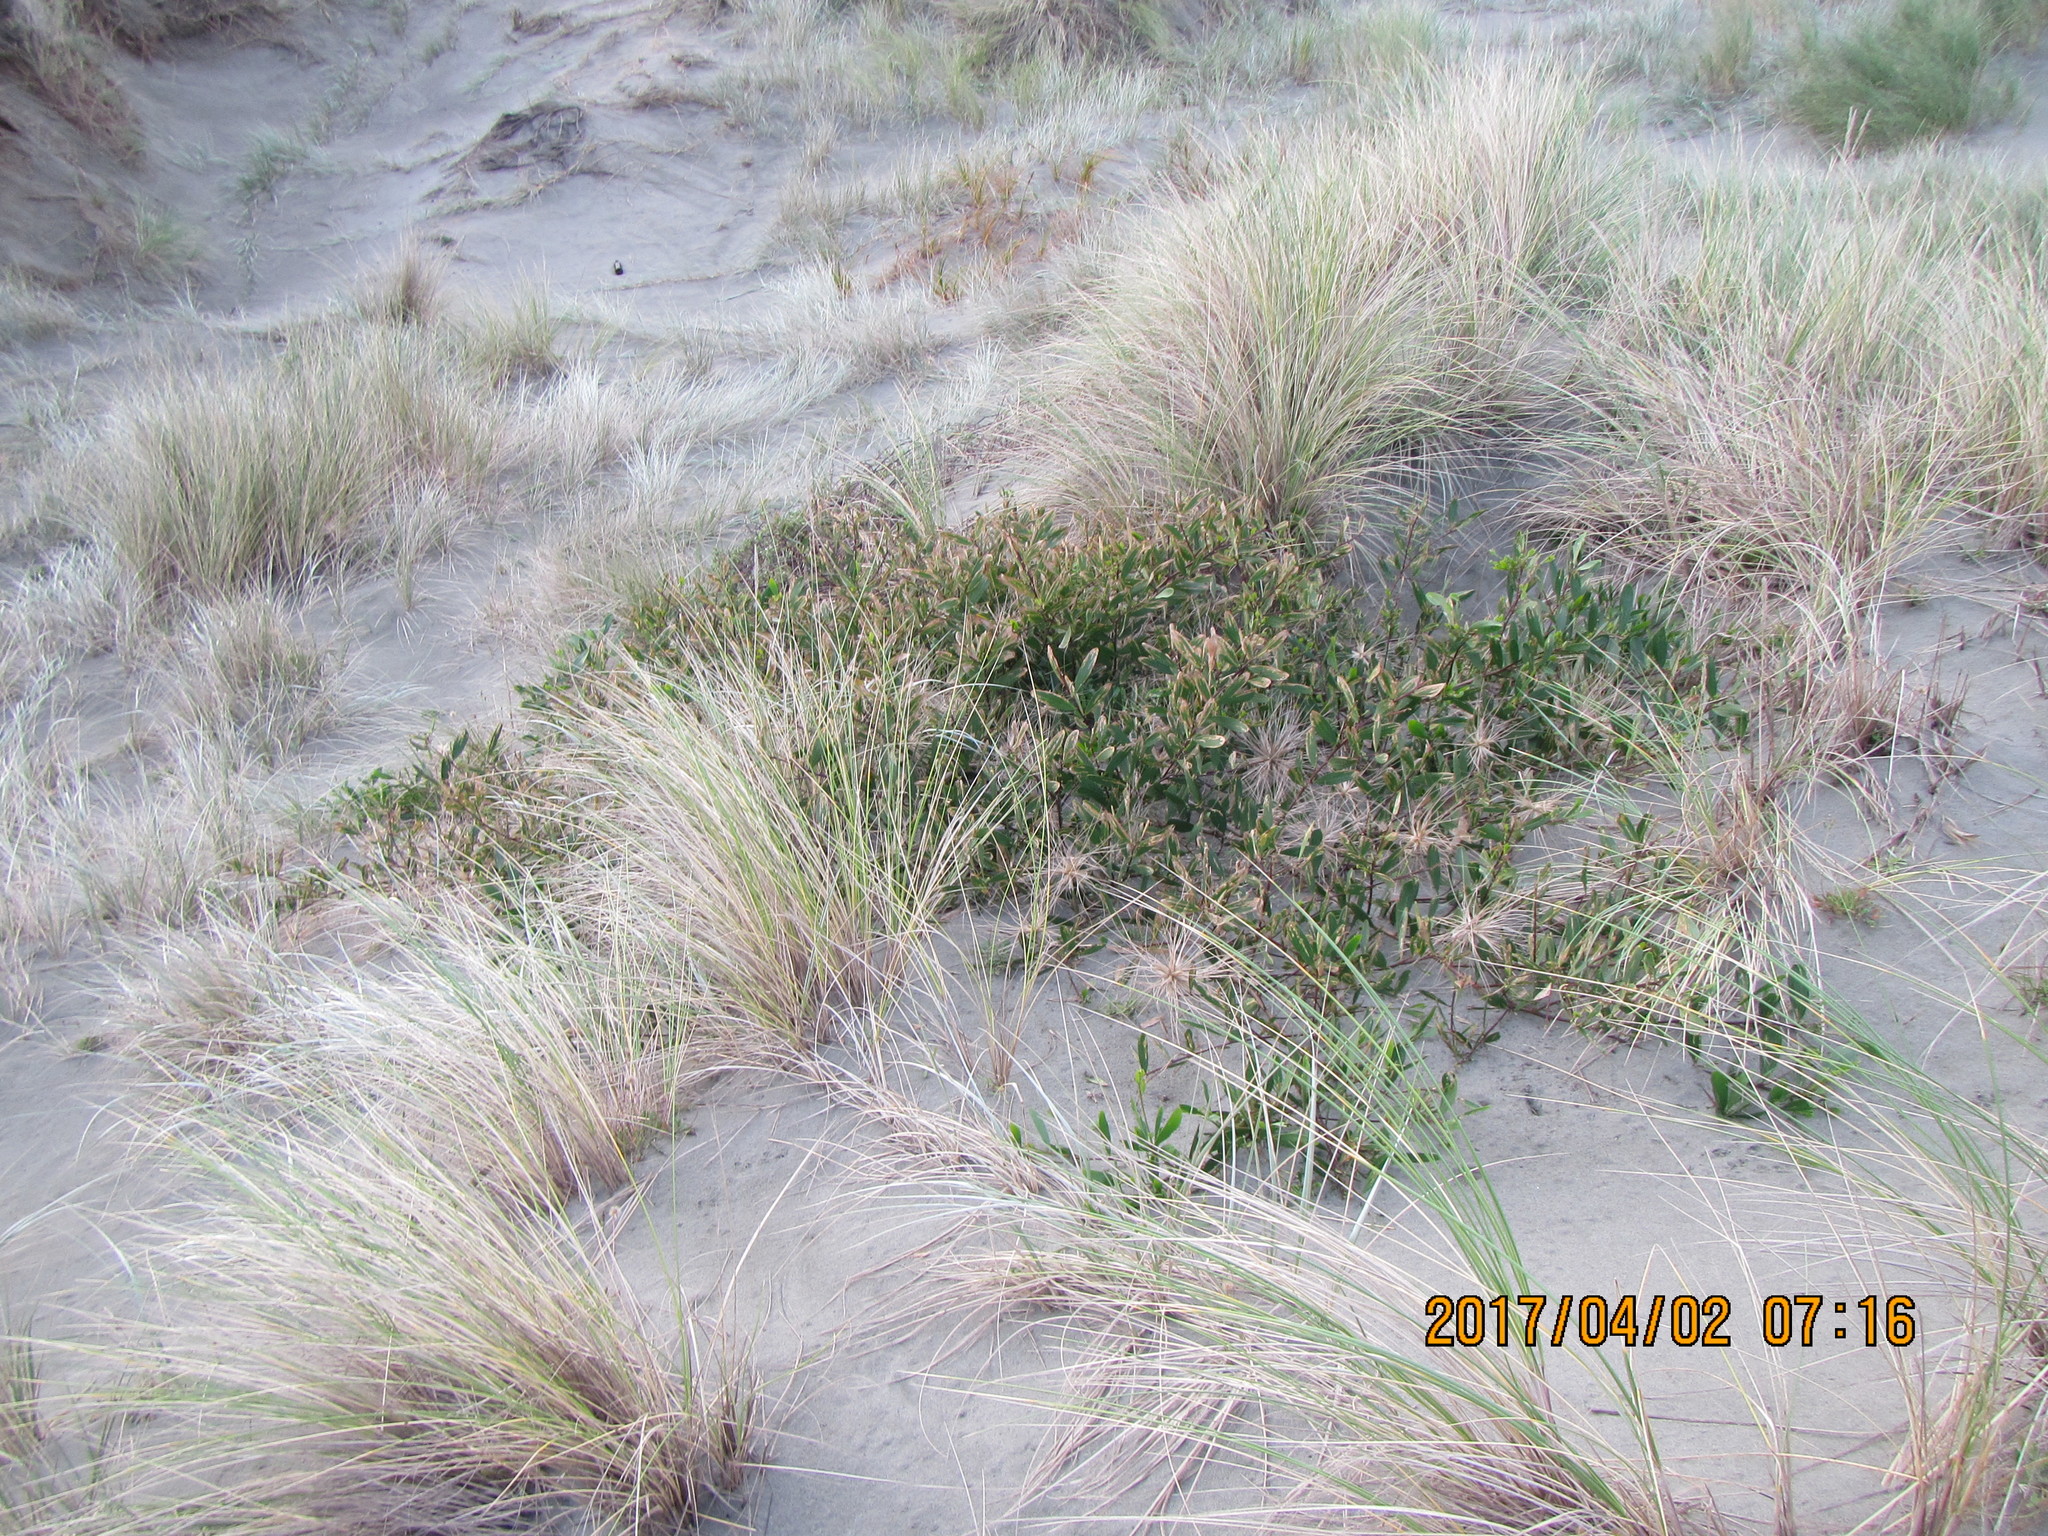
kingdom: Plantae
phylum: Tracheophyta
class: Magnoliopsida
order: Fabales
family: Fabaceae
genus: Acacia
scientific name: Acacia longifolia
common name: Sydney golden wattle
